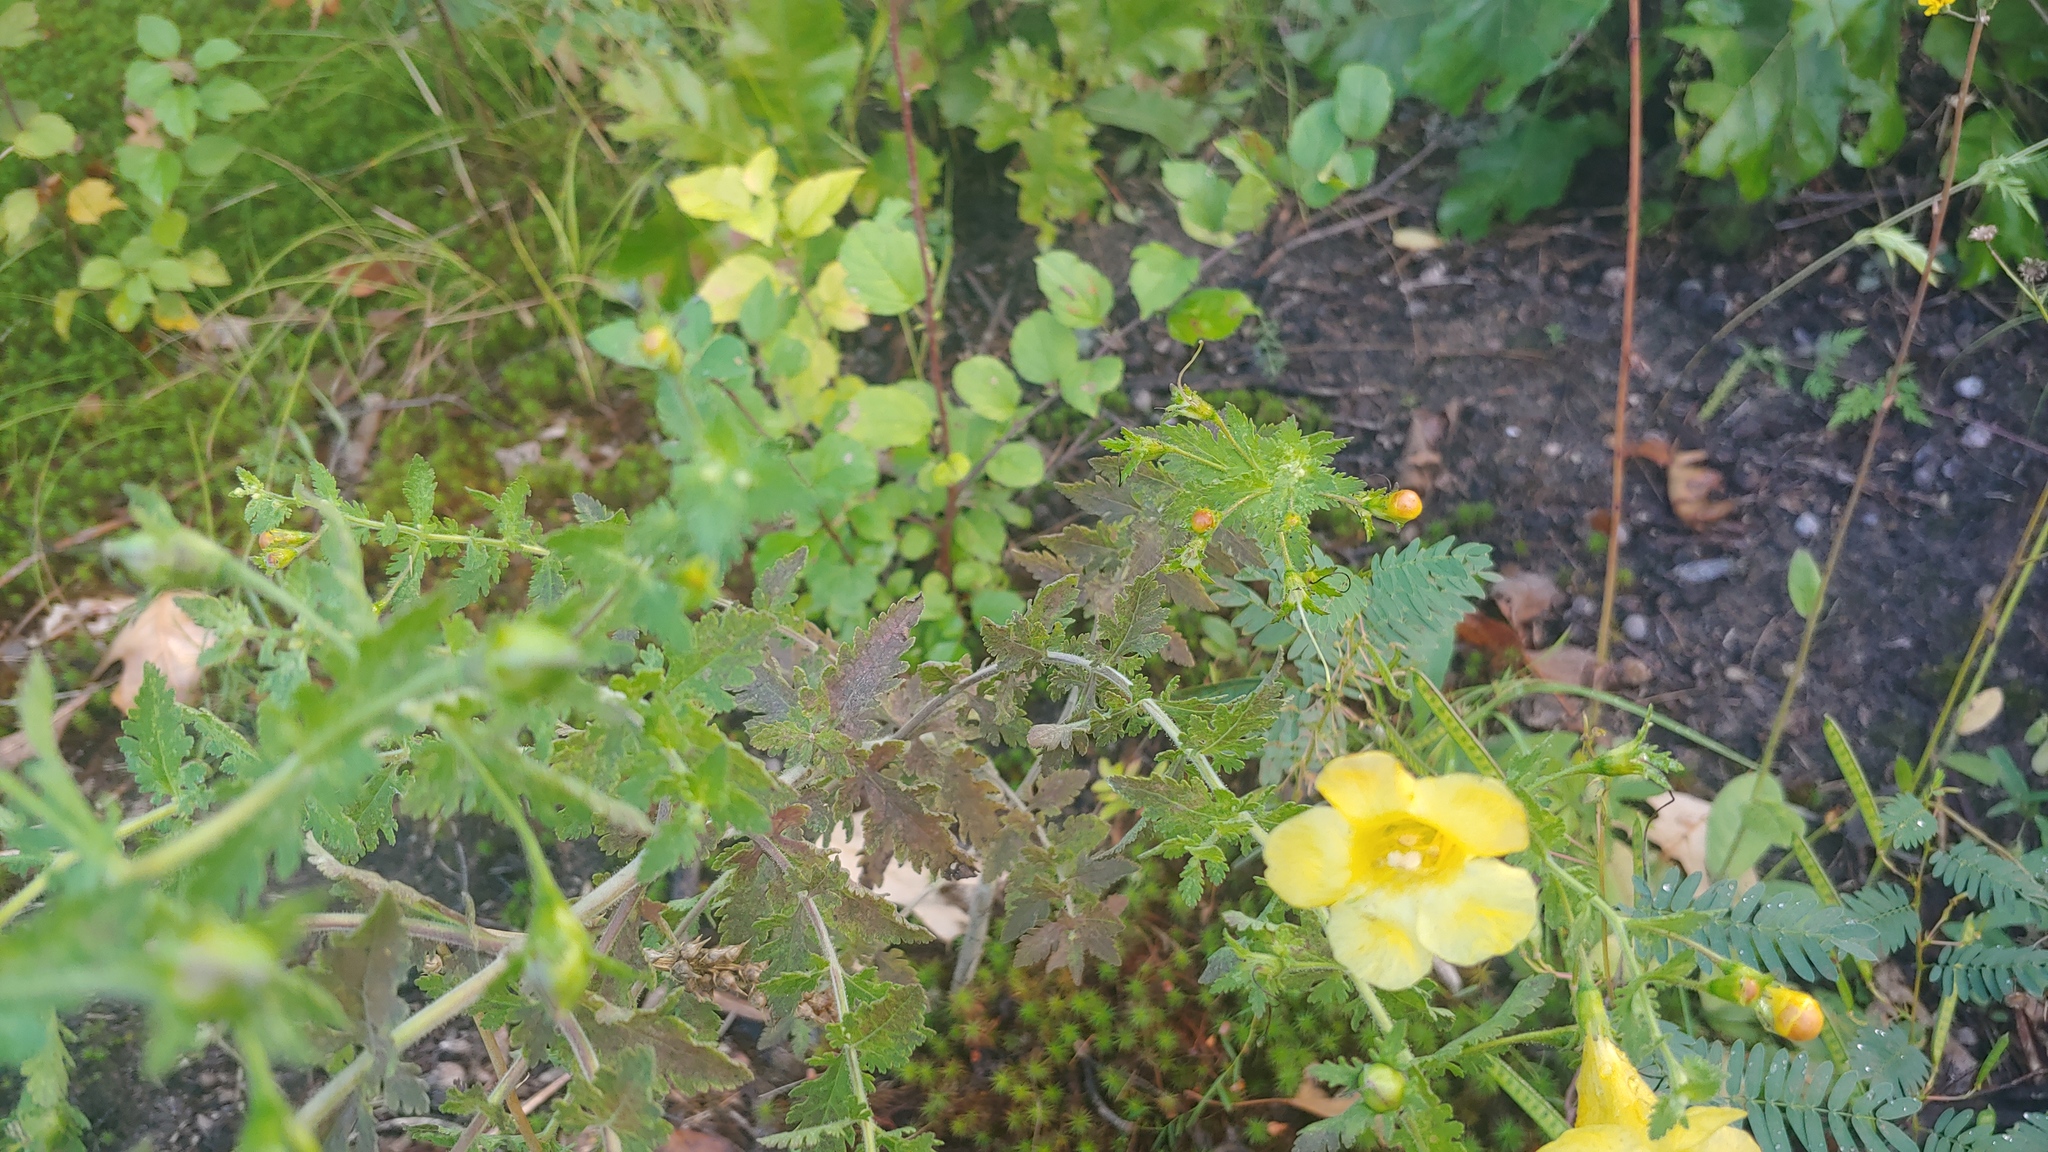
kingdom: Plantae
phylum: Tracheophyta
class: Magnoliopsida
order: Lamiales
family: Orobanchaceae
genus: Aureolaria
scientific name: Aureolaria pedicularia
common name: Annual false foxglove
